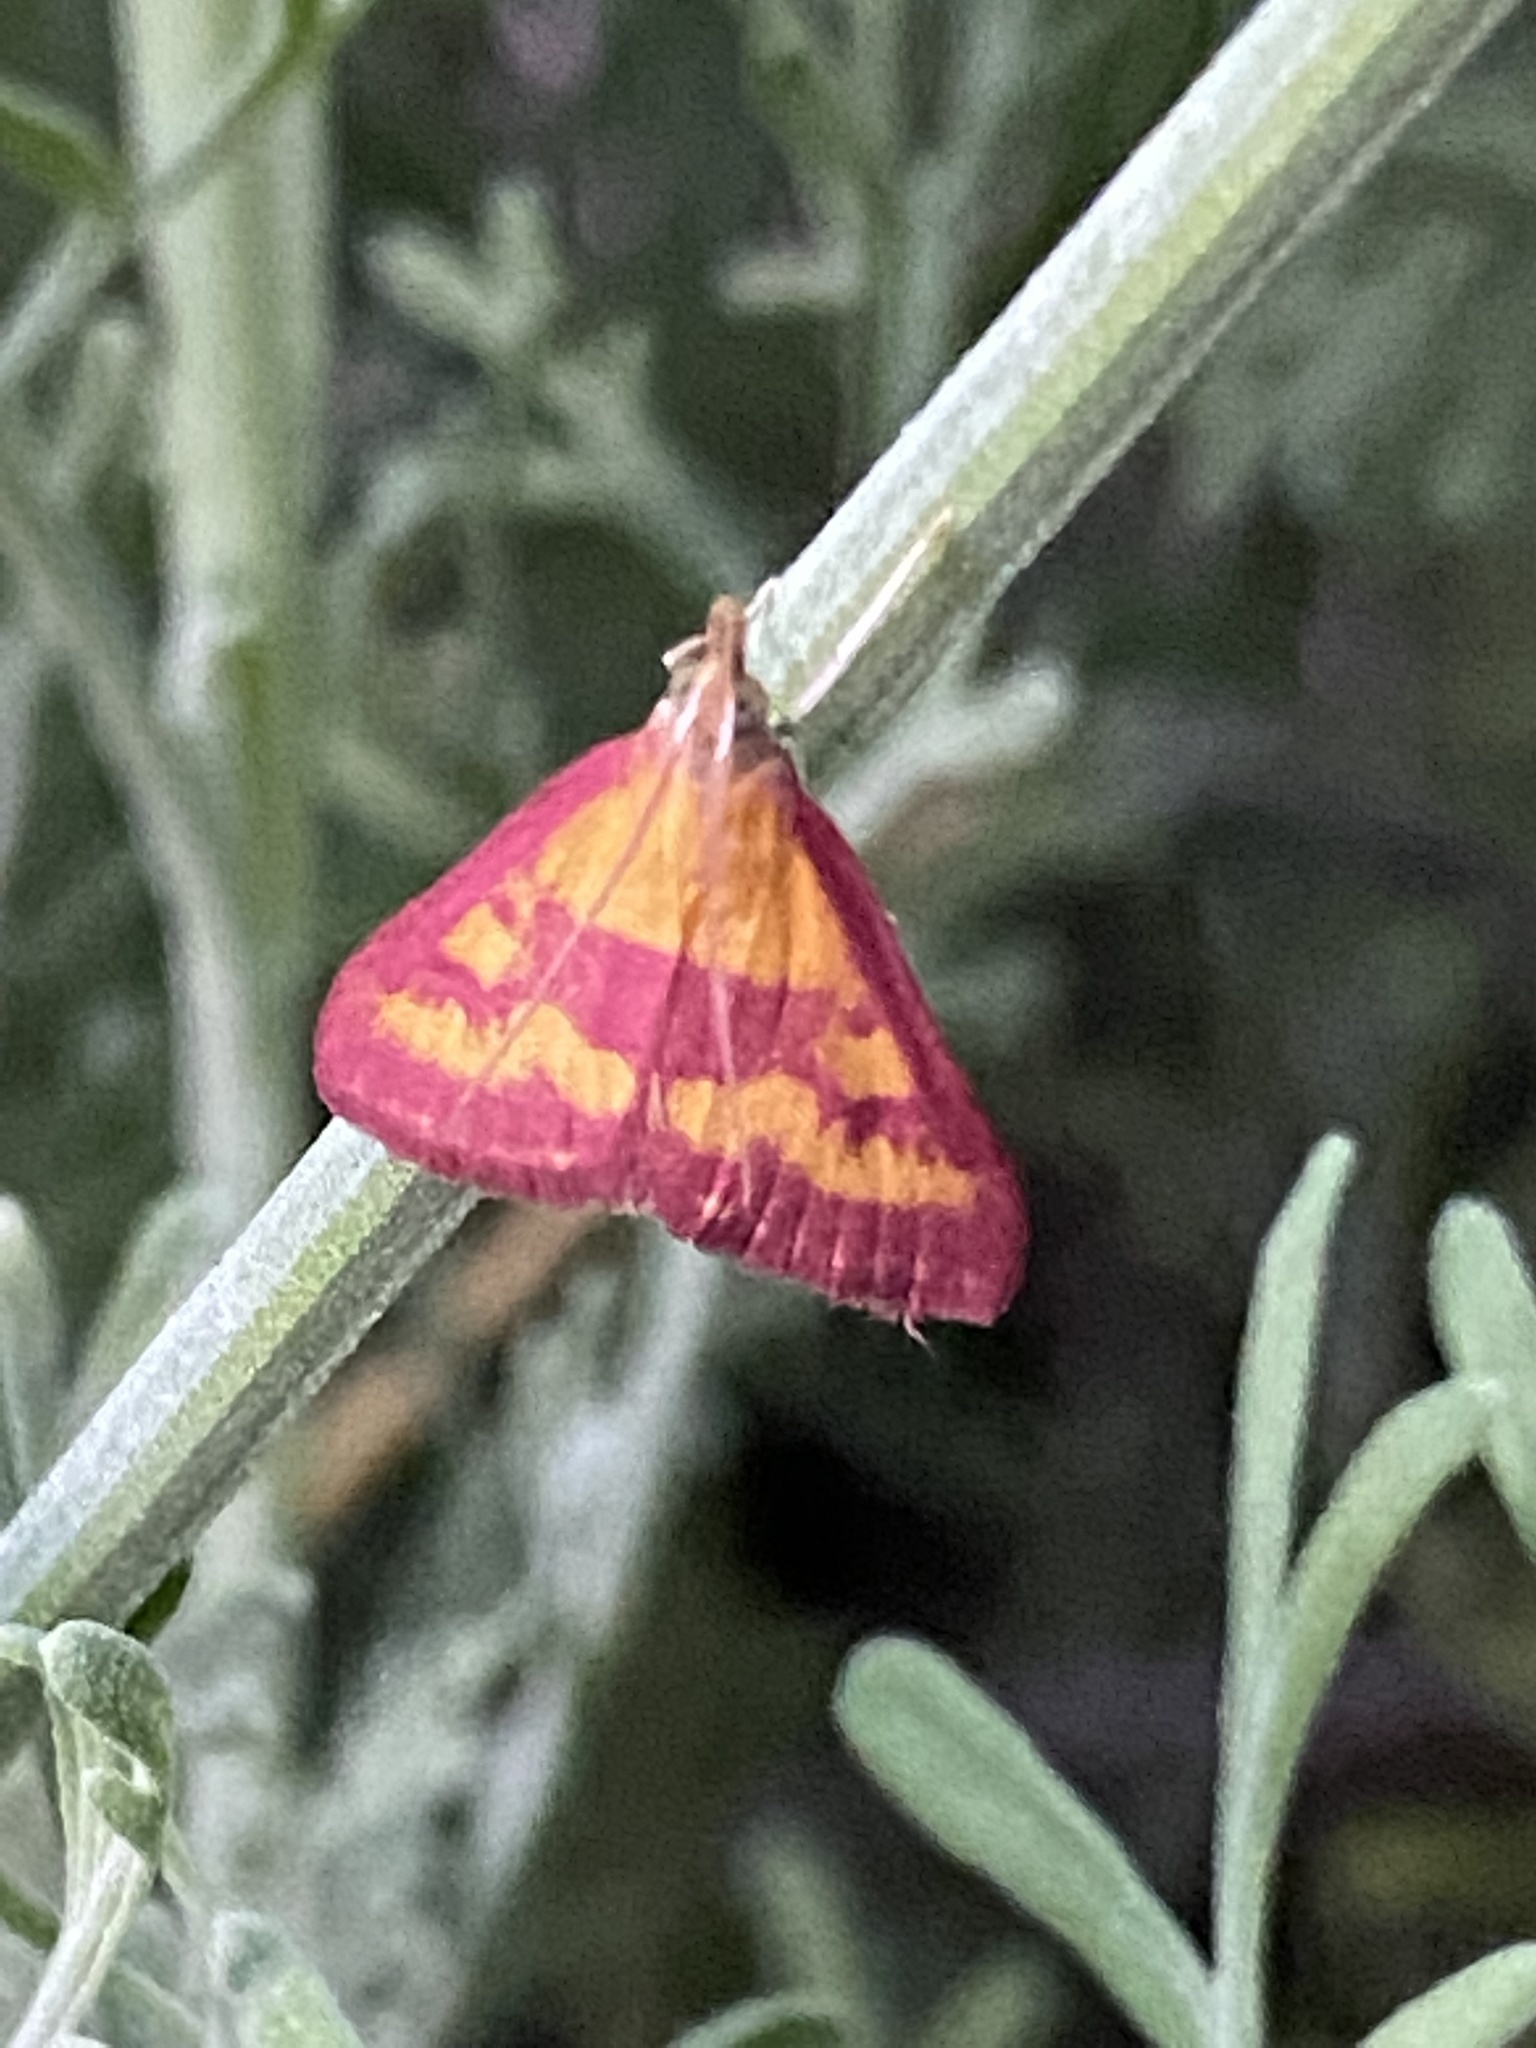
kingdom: Animalia
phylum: Arthropoda
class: Insecta
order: Lepidoptera
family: Crambidae
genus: Pyrausta
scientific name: Pyrausta laticlavia
